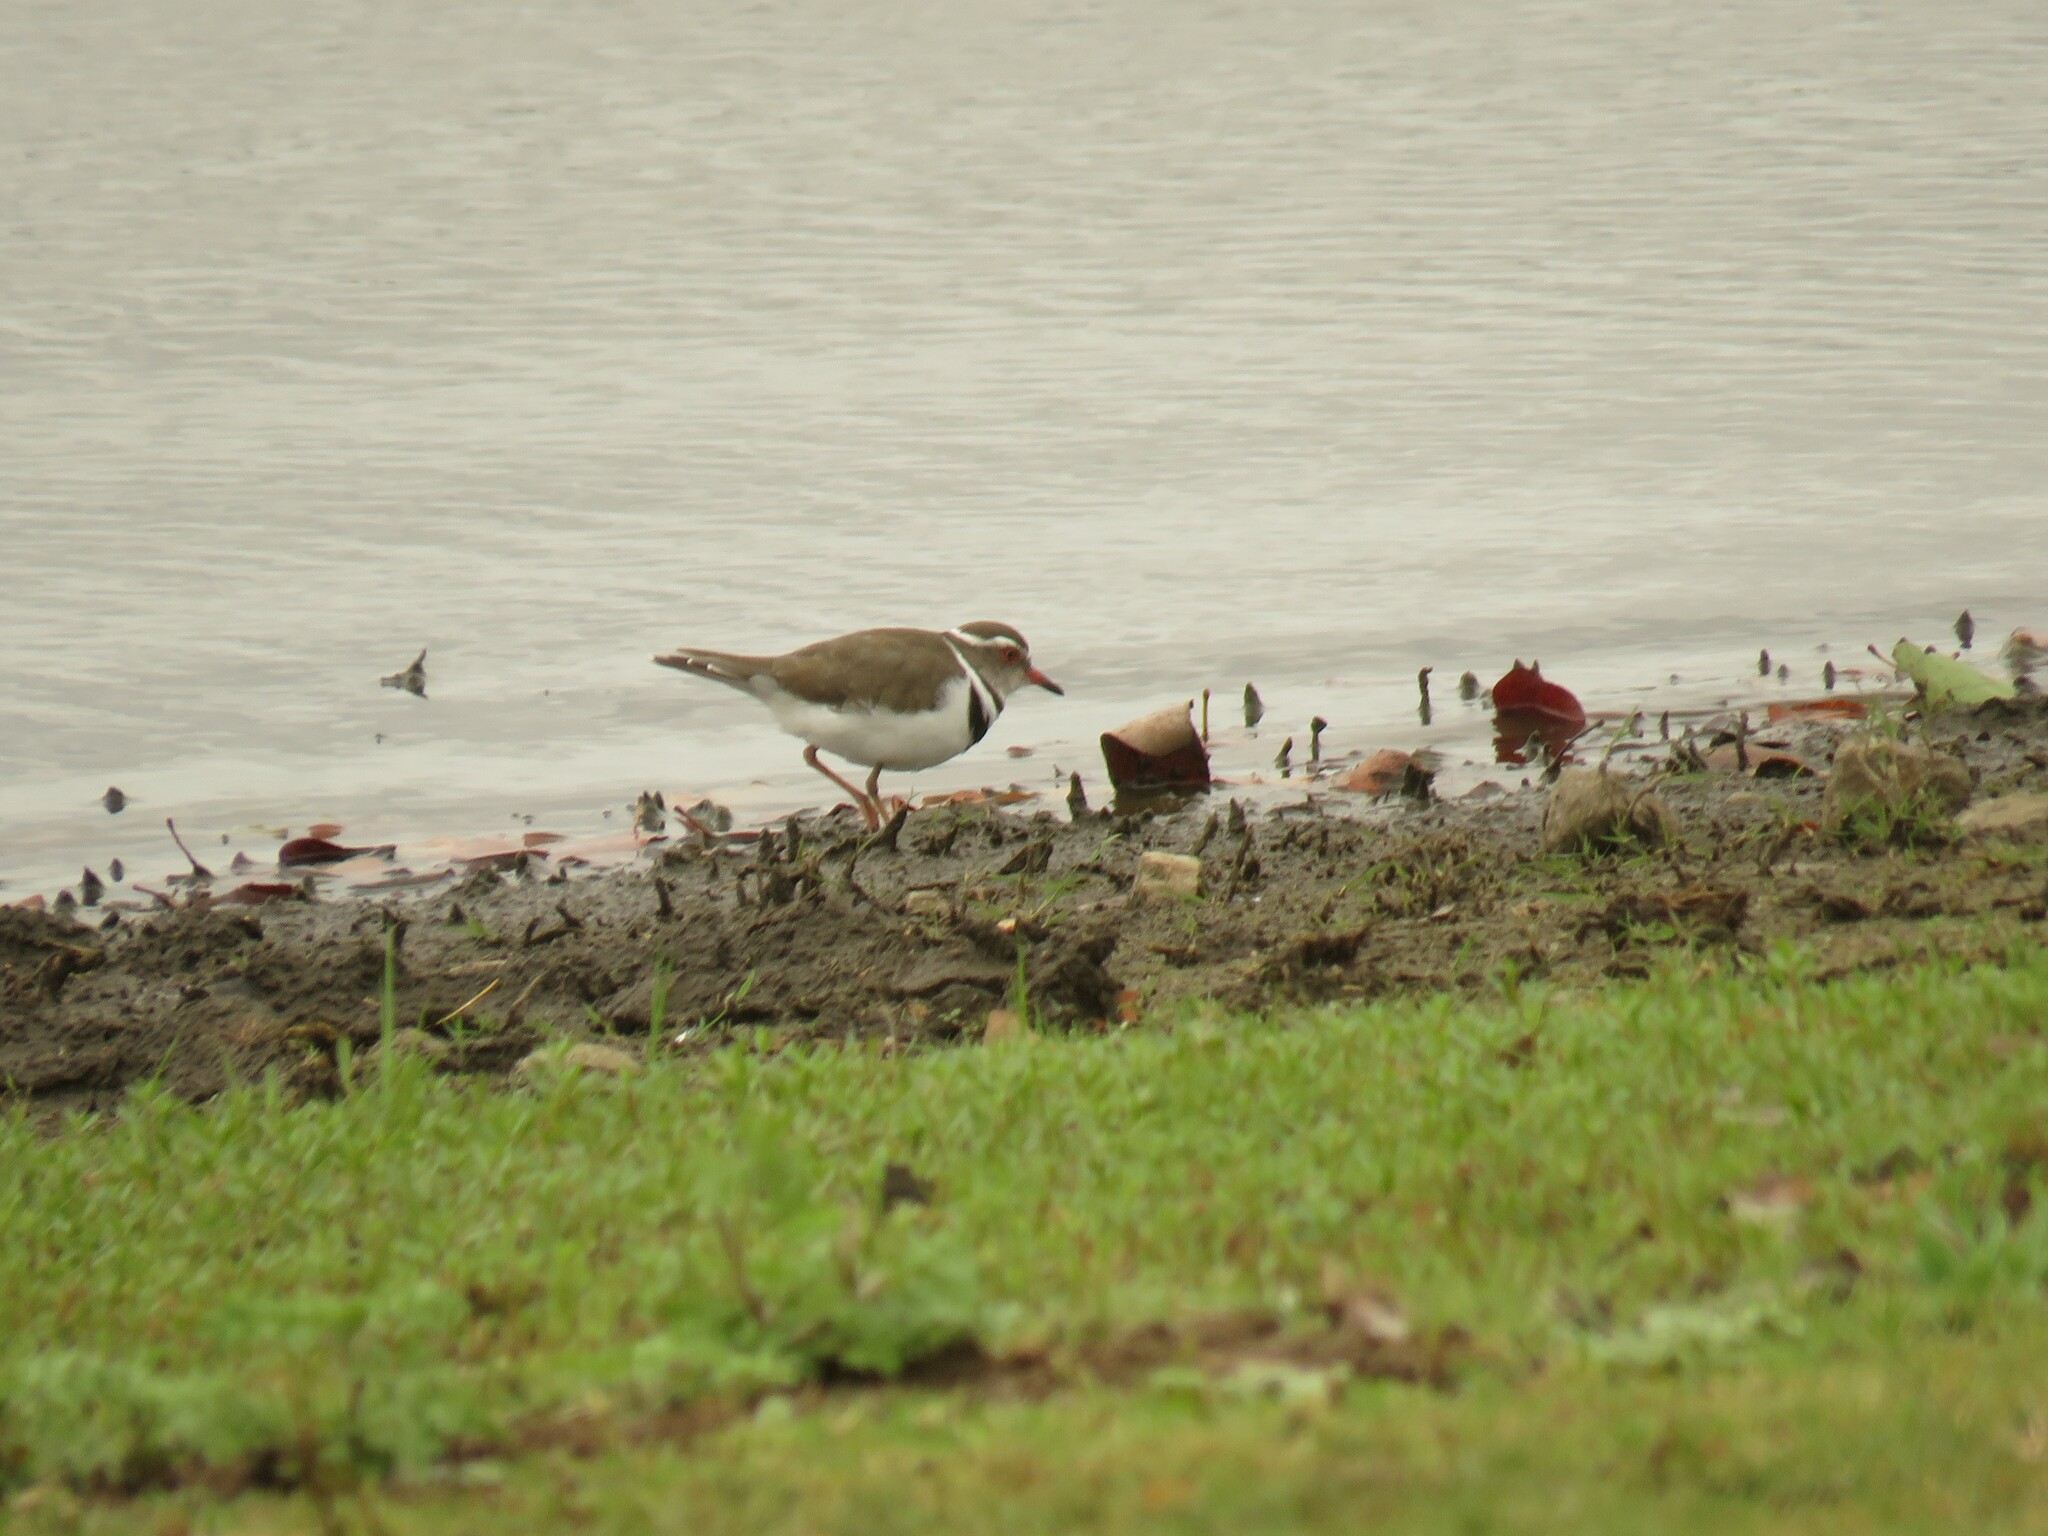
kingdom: Animalia
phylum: Chordata
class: Aves
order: Charadriiformes
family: Charadriidae
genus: Charadrius
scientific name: Charadrius tricollaris
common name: Three-banded plover
